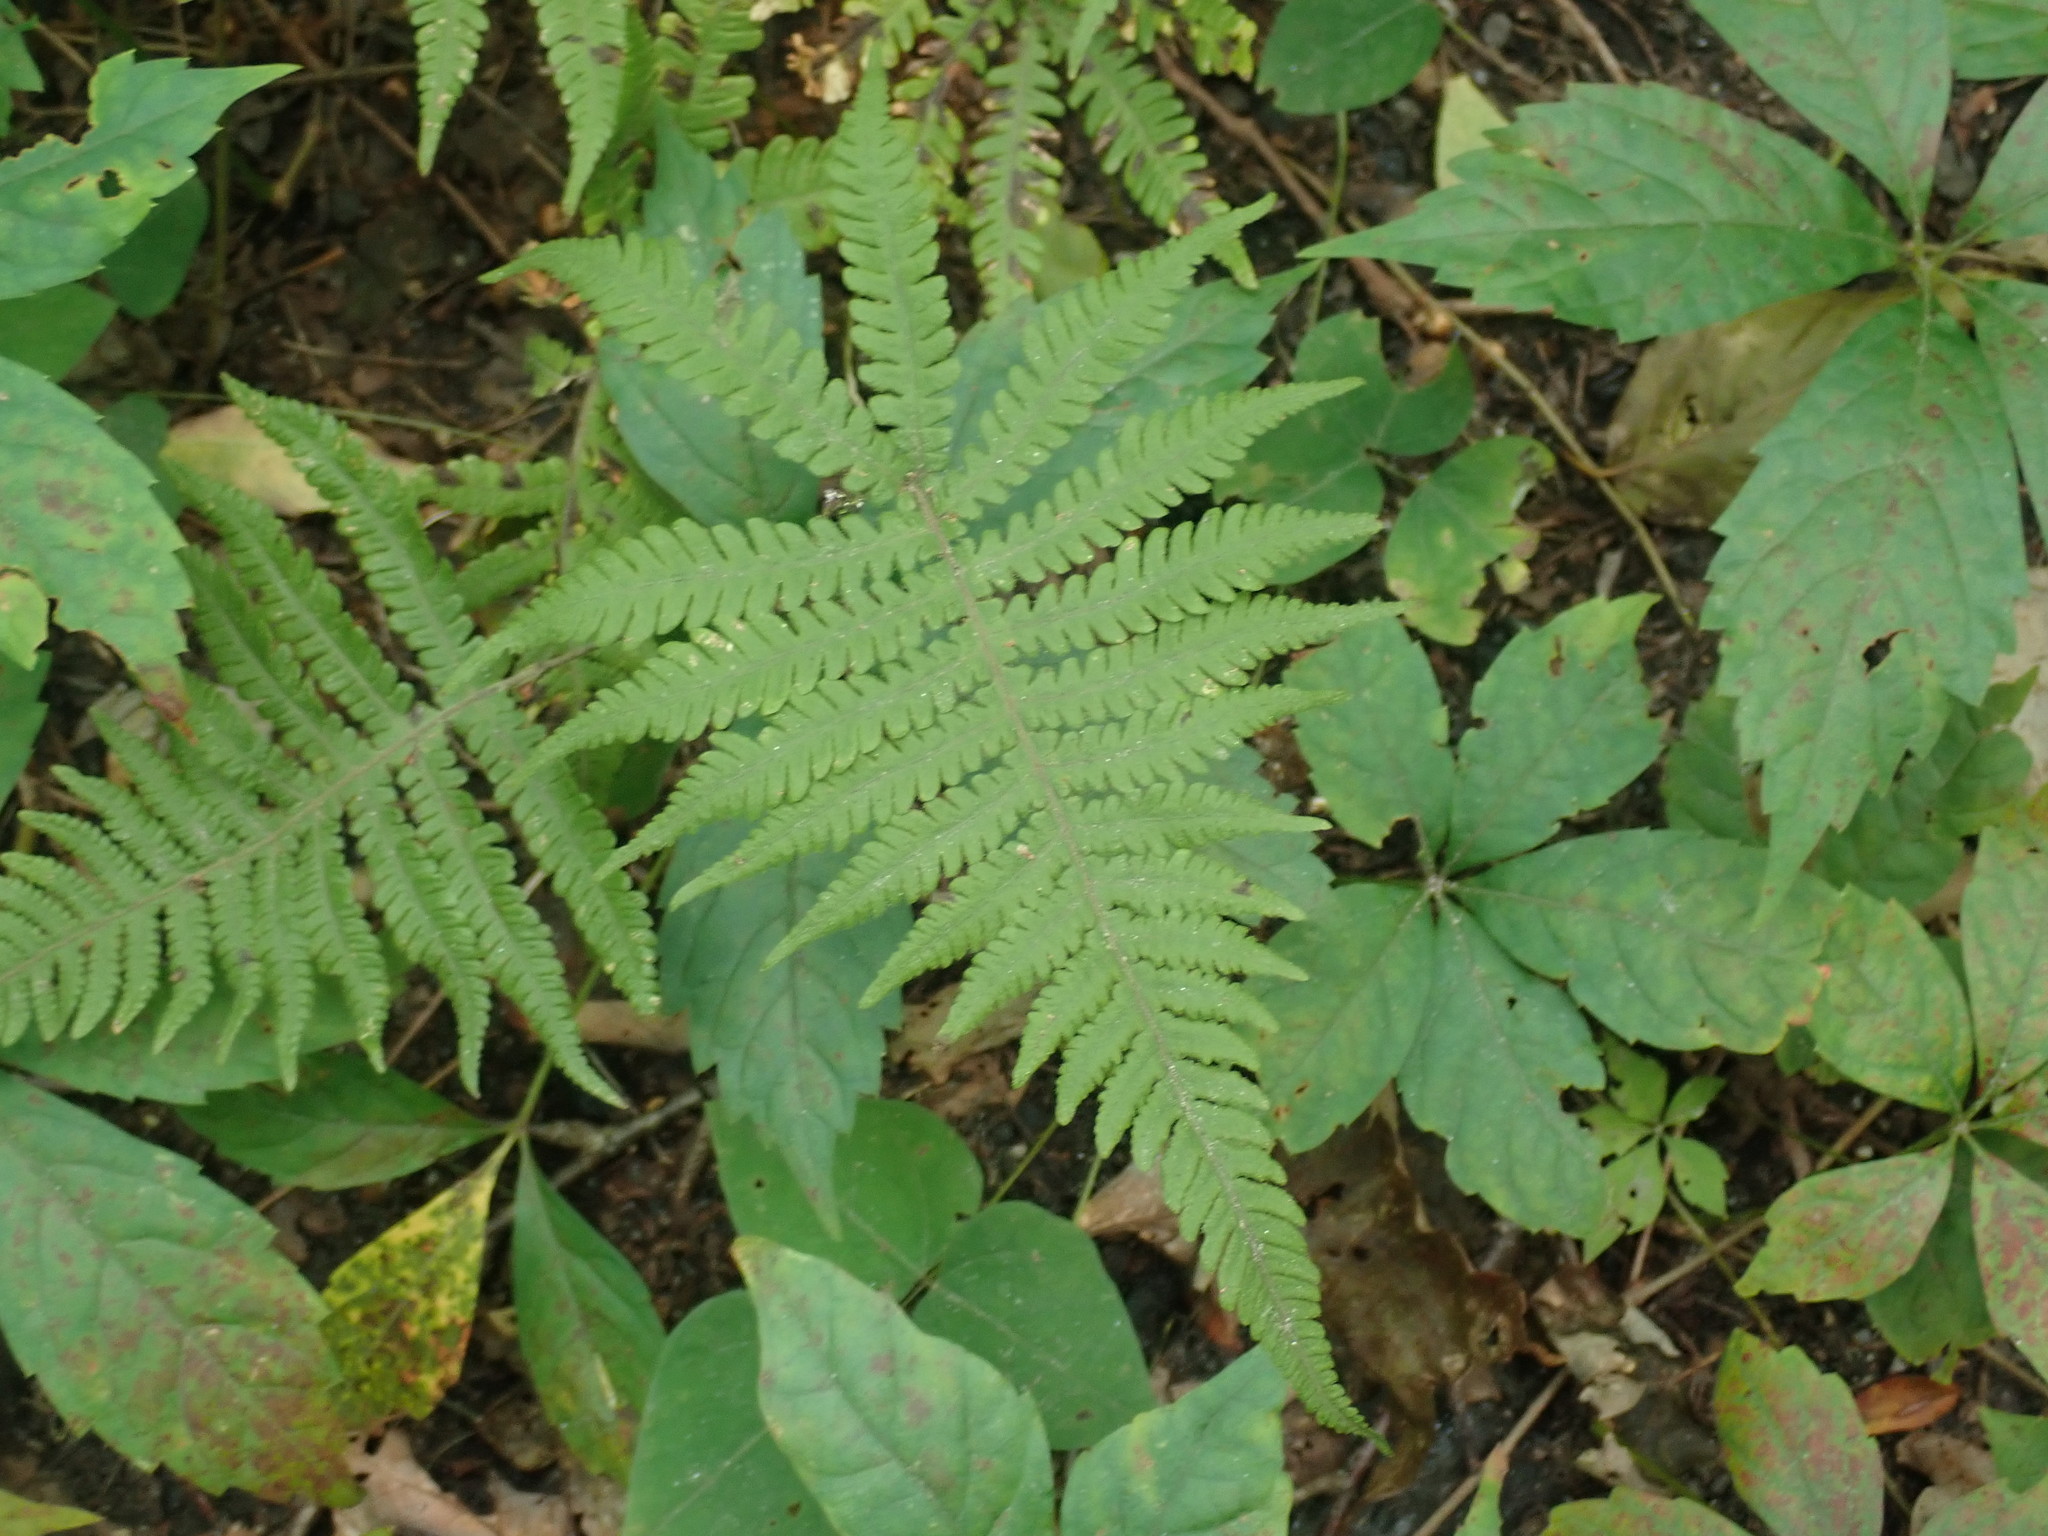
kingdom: Plantae
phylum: Tracheophyta
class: Polypodiopsida
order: Polypodiales
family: Thelypteridaceae
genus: Phegopteris
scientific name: Phegopteris connectilis
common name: Beech fern
